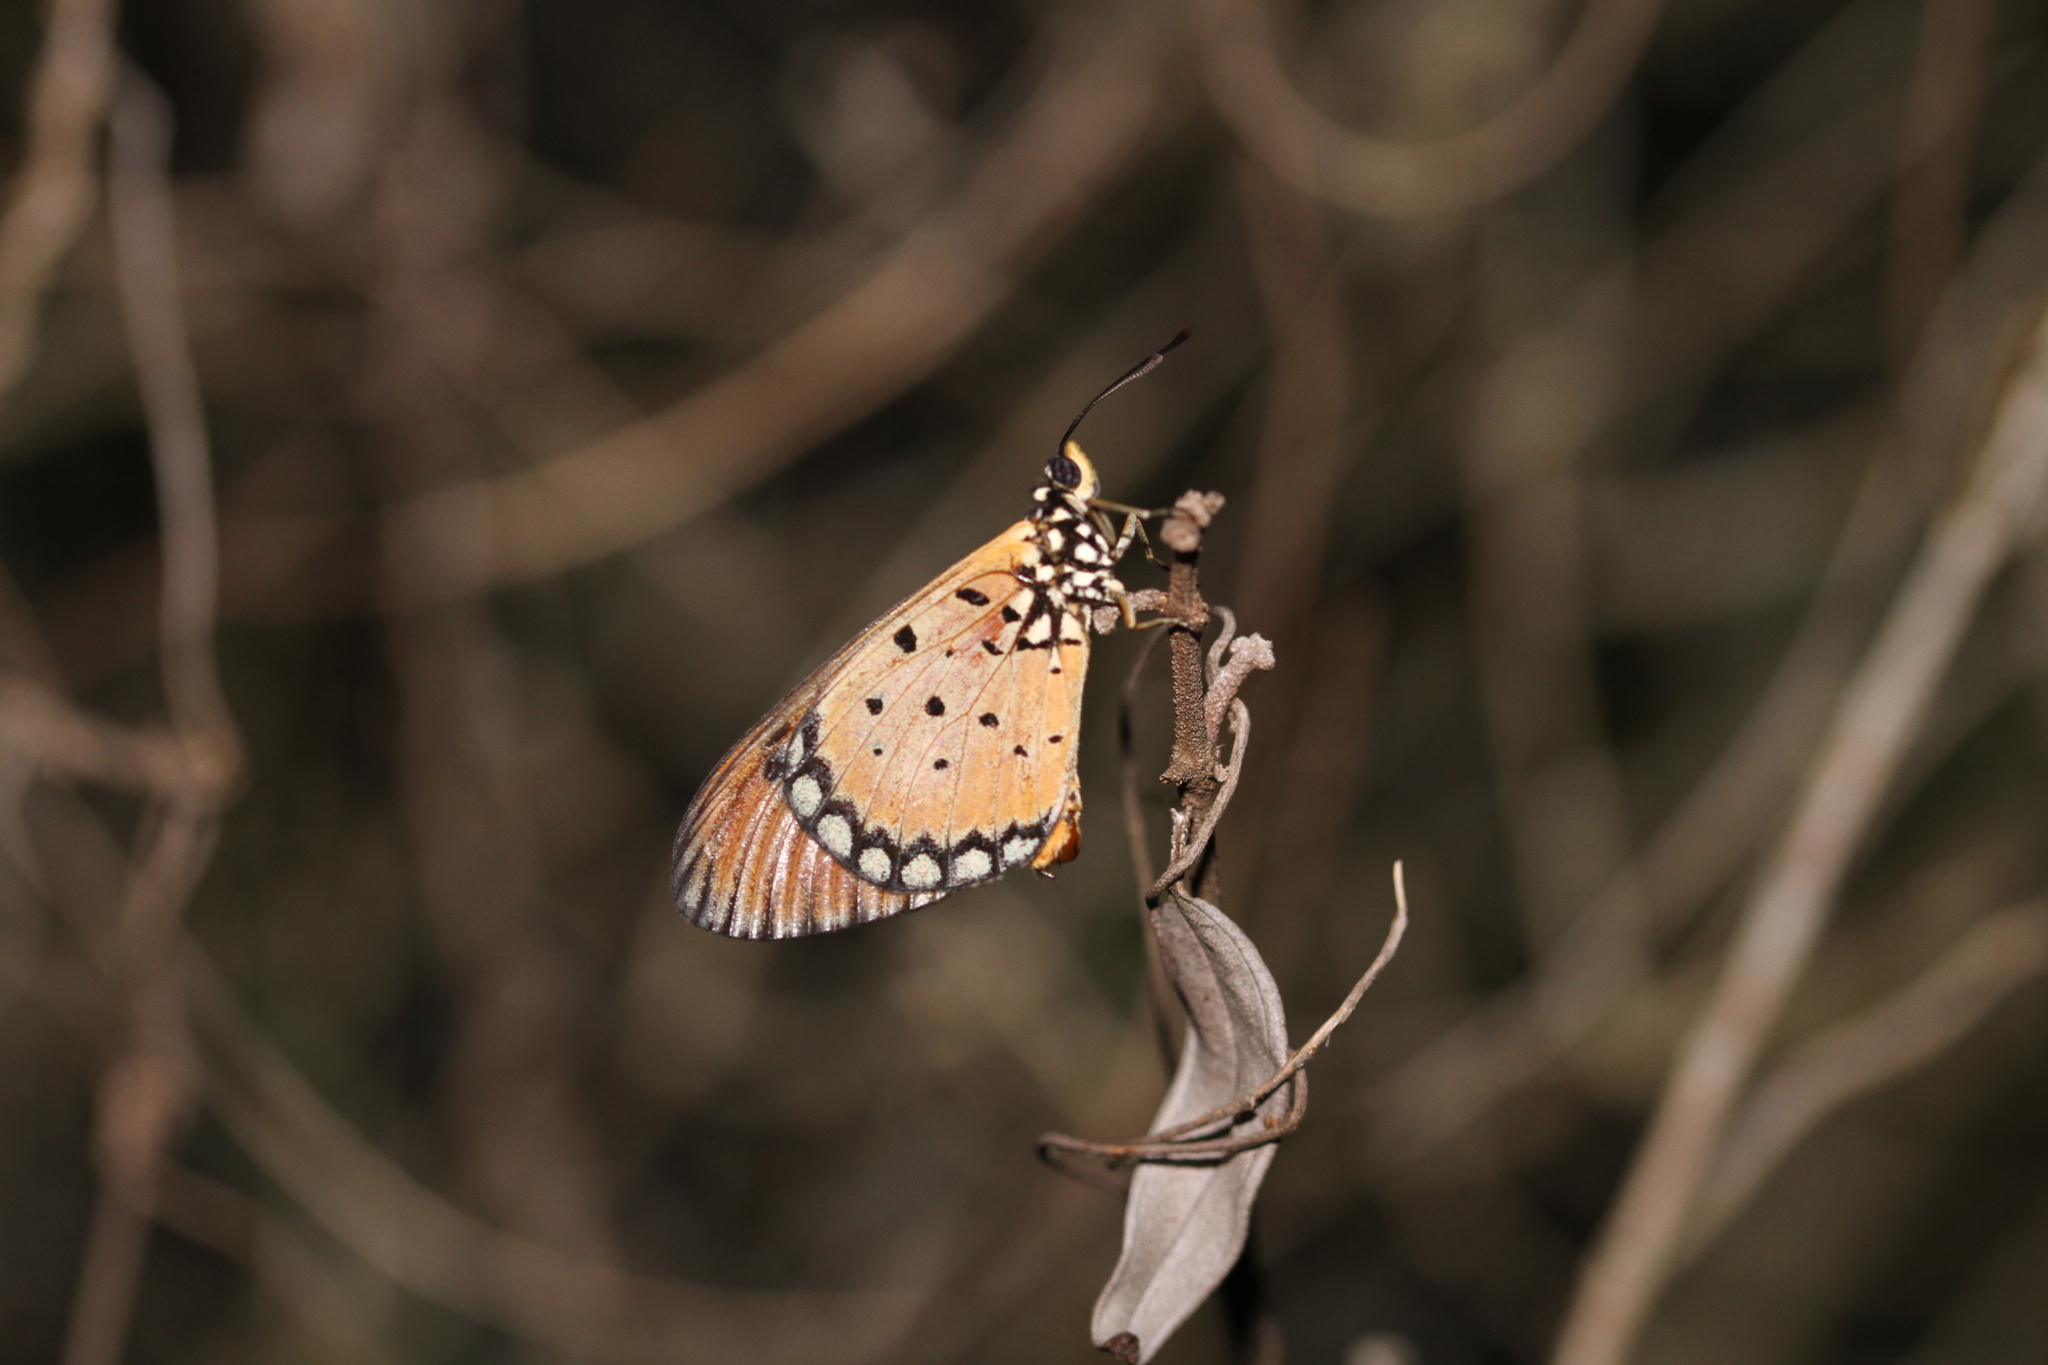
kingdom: Animalia
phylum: Arthropoda
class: Insecta
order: Lepidoptera
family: Nymphalidae
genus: Acraea
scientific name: Acraea terpsicore
